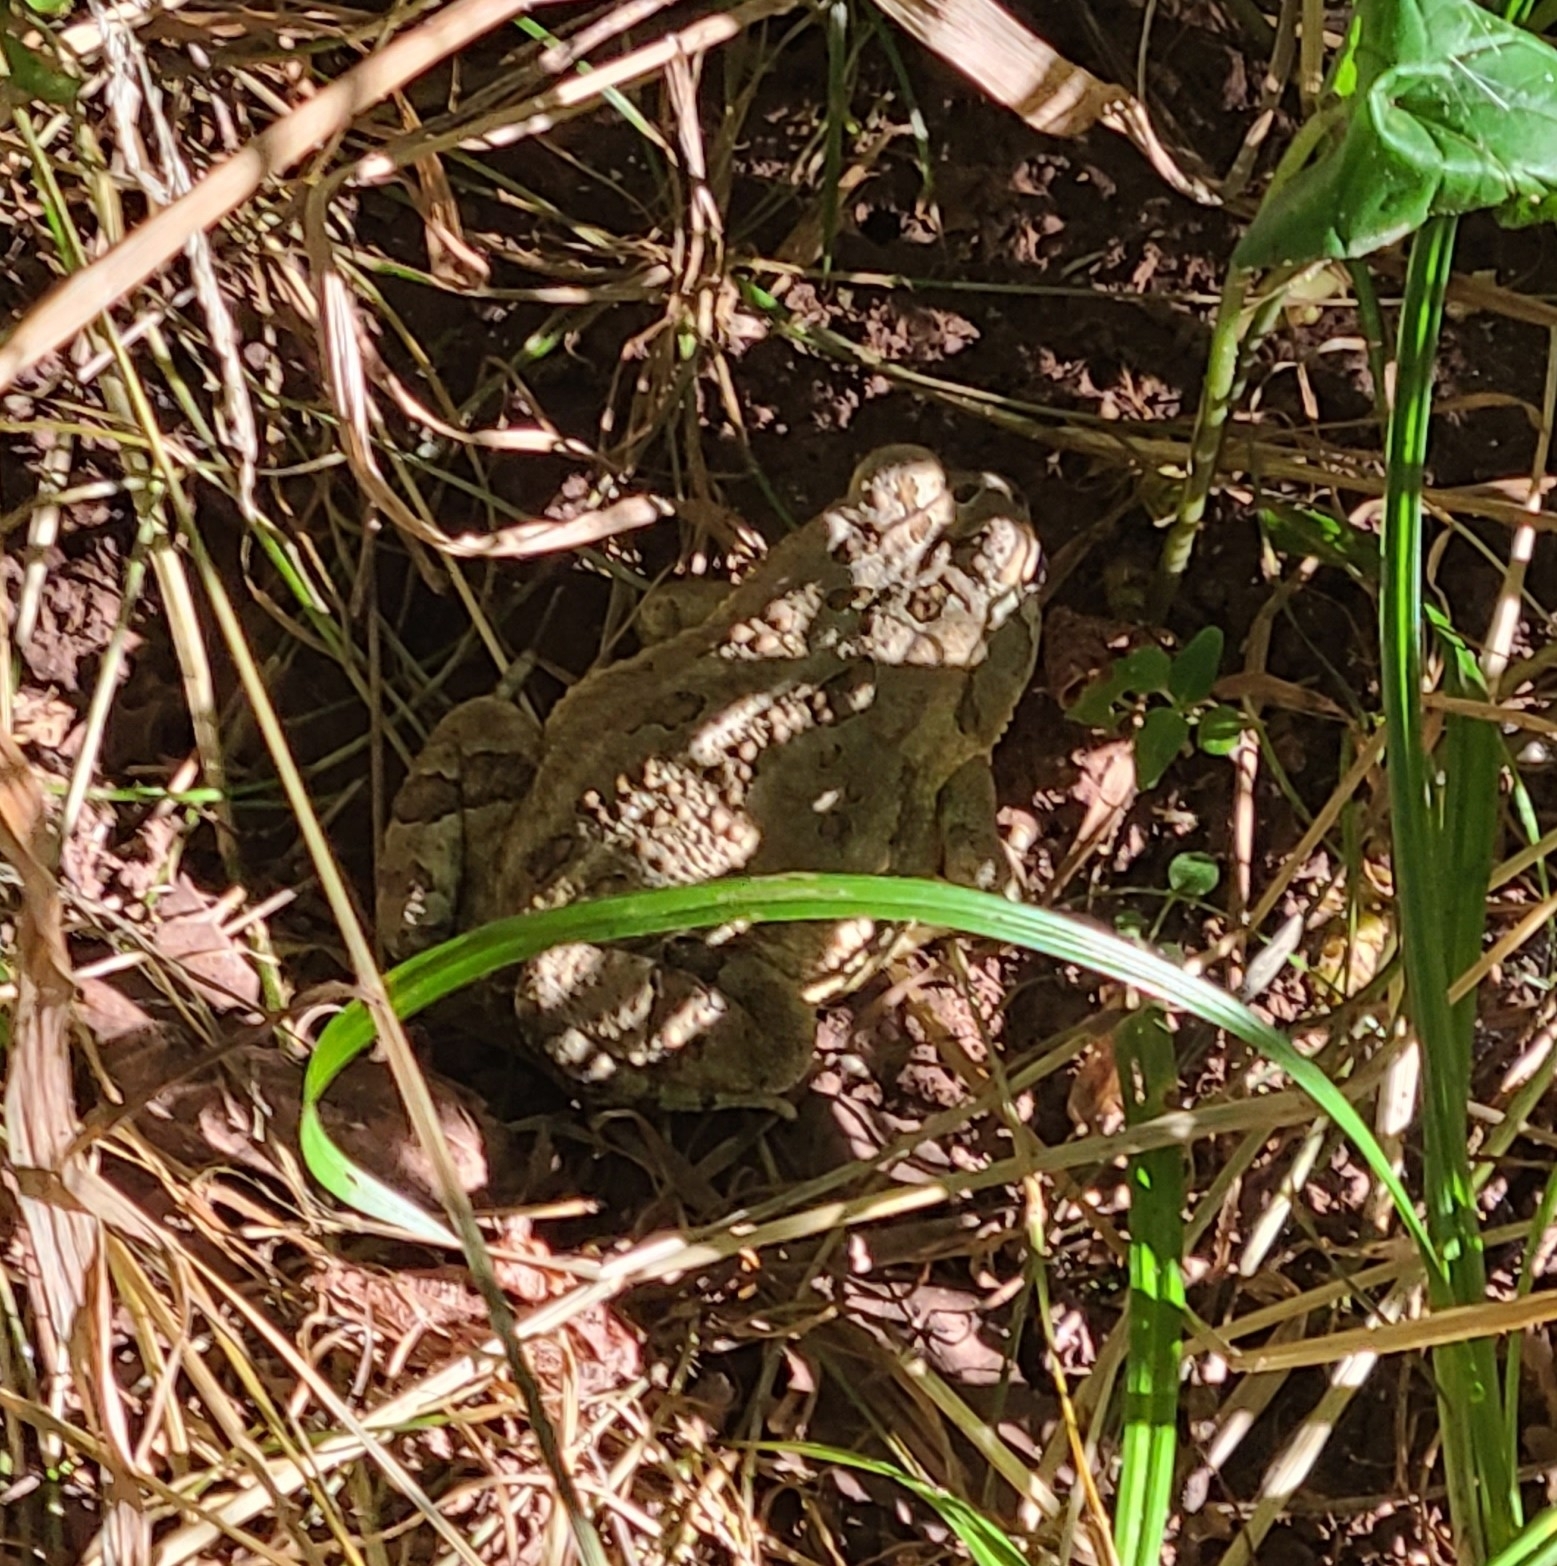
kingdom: Animalia
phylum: Chordata
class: Amphibia
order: Anura
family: Bufonidae
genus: Anaxyrus
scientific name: Anaxyrus fowleri
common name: Fowler's toad
